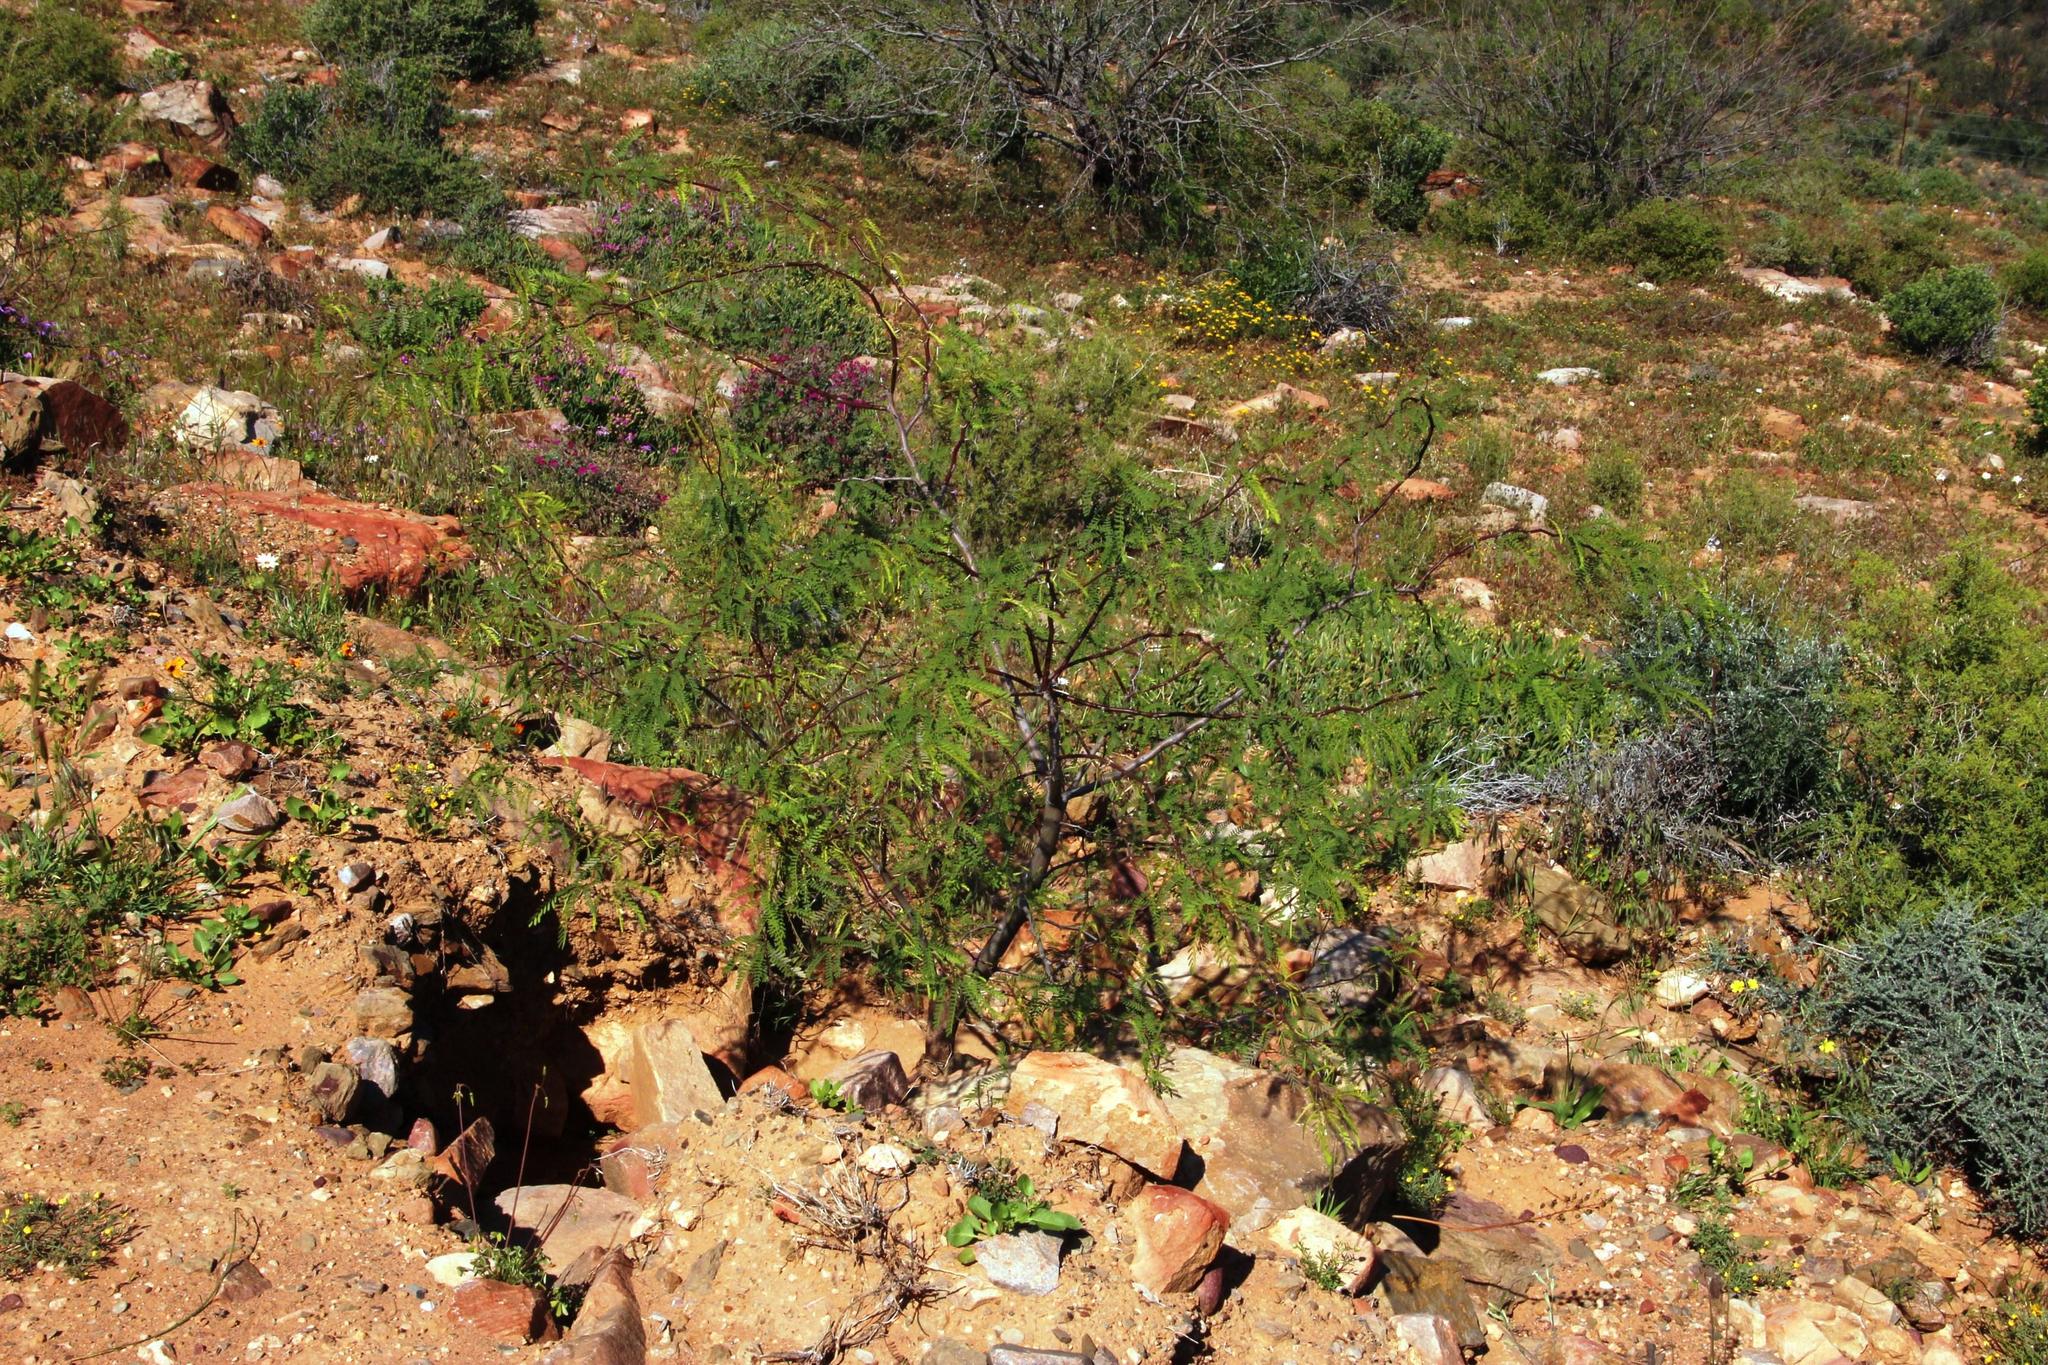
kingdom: Plantae
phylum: Tracheophyta
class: Magnoliopsida
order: Fabales
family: Fabaceae
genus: Prosopis
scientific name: Prosopis glandulosa
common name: Honey mesquite
